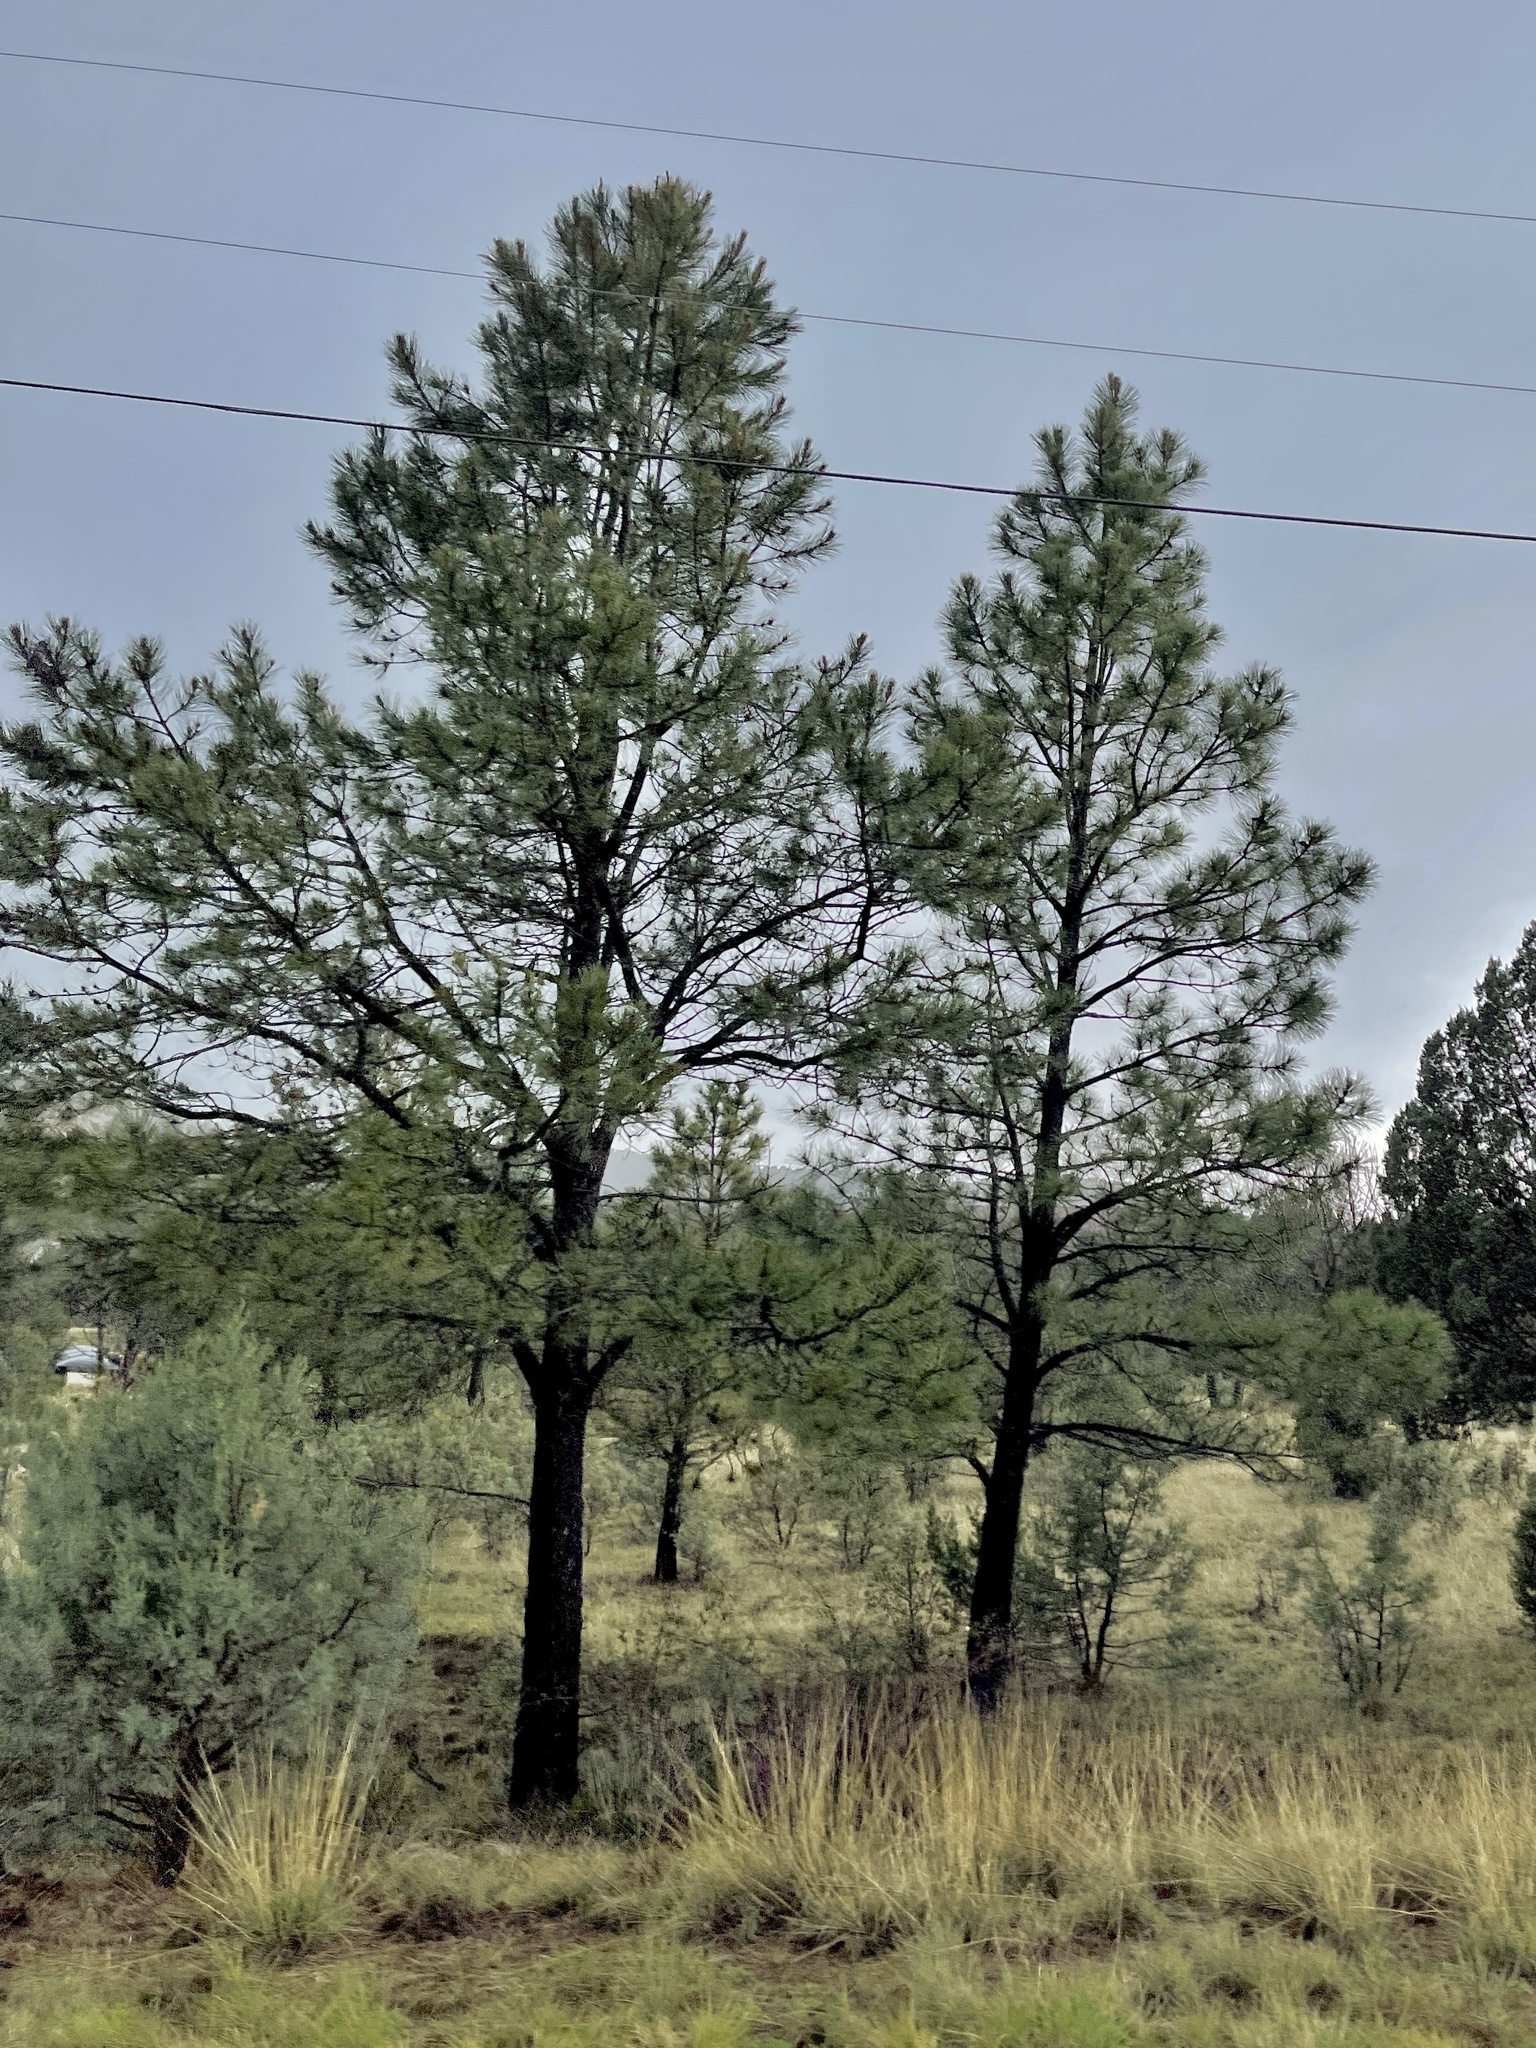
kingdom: Plantae
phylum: Tracheophyta
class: Pinopsida
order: Pinales
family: Pinaceae
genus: Pinus
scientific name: Pinus ponderosa
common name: Western yellow-pine
